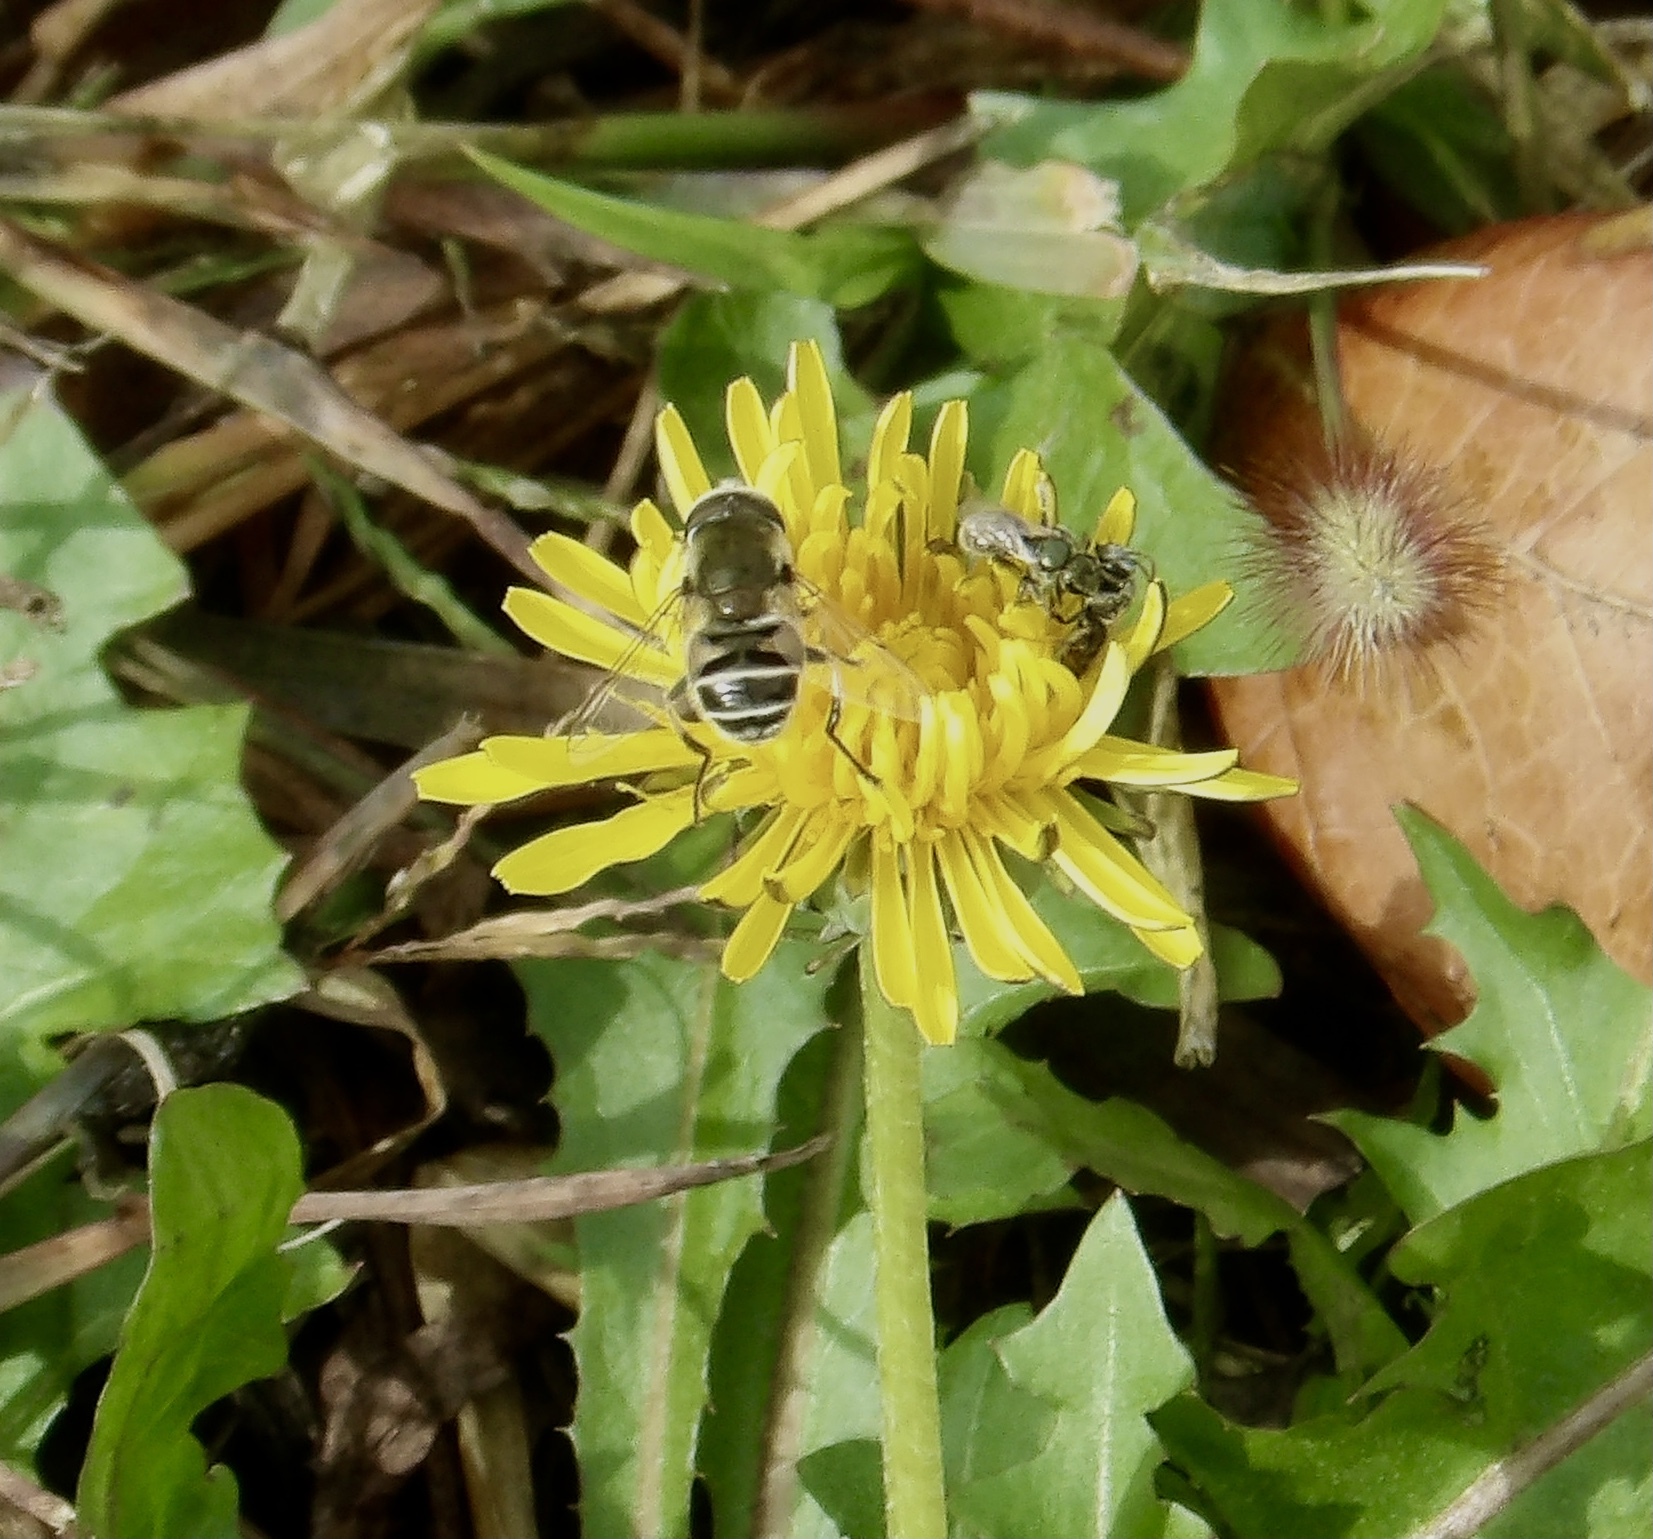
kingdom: Animalia
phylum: Arthropoda
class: Insecta
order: Diptera
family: Syrphidae
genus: Eristalis
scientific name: Eristalis stipator
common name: Yellow-shouldered drone fly
